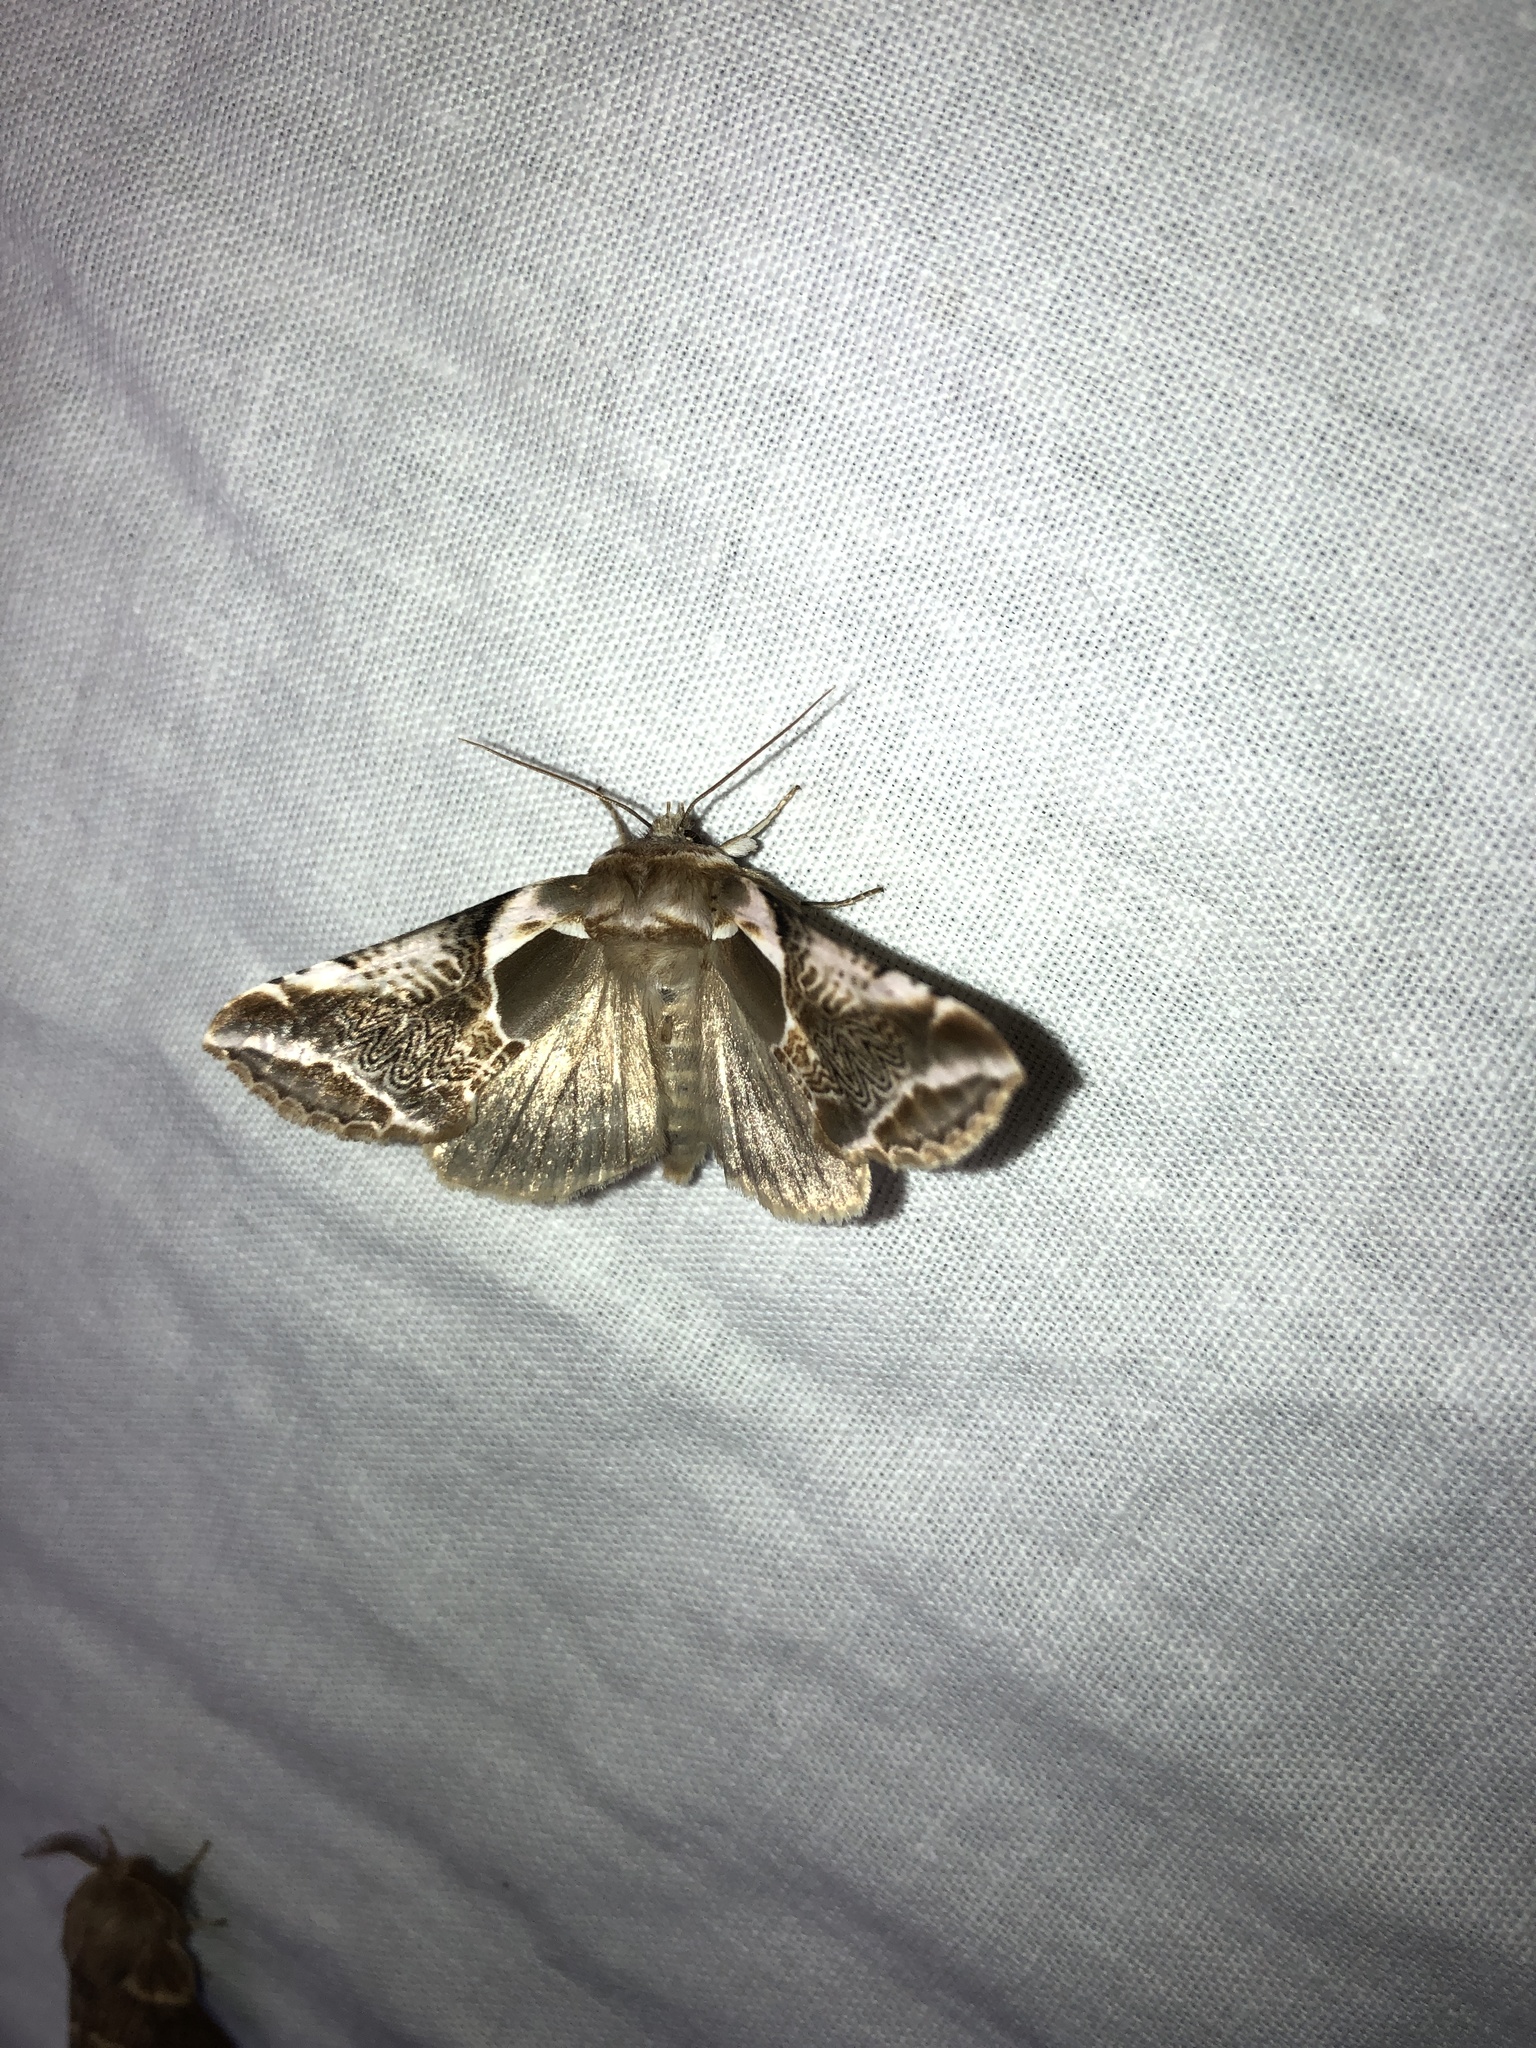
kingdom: Animalia
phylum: Arthropoda
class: Insecta
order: Lepidoptera
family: Drepanidae
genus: Habrosyne
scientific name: Habrosyne scripta
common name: Lettered habrosyne moth
